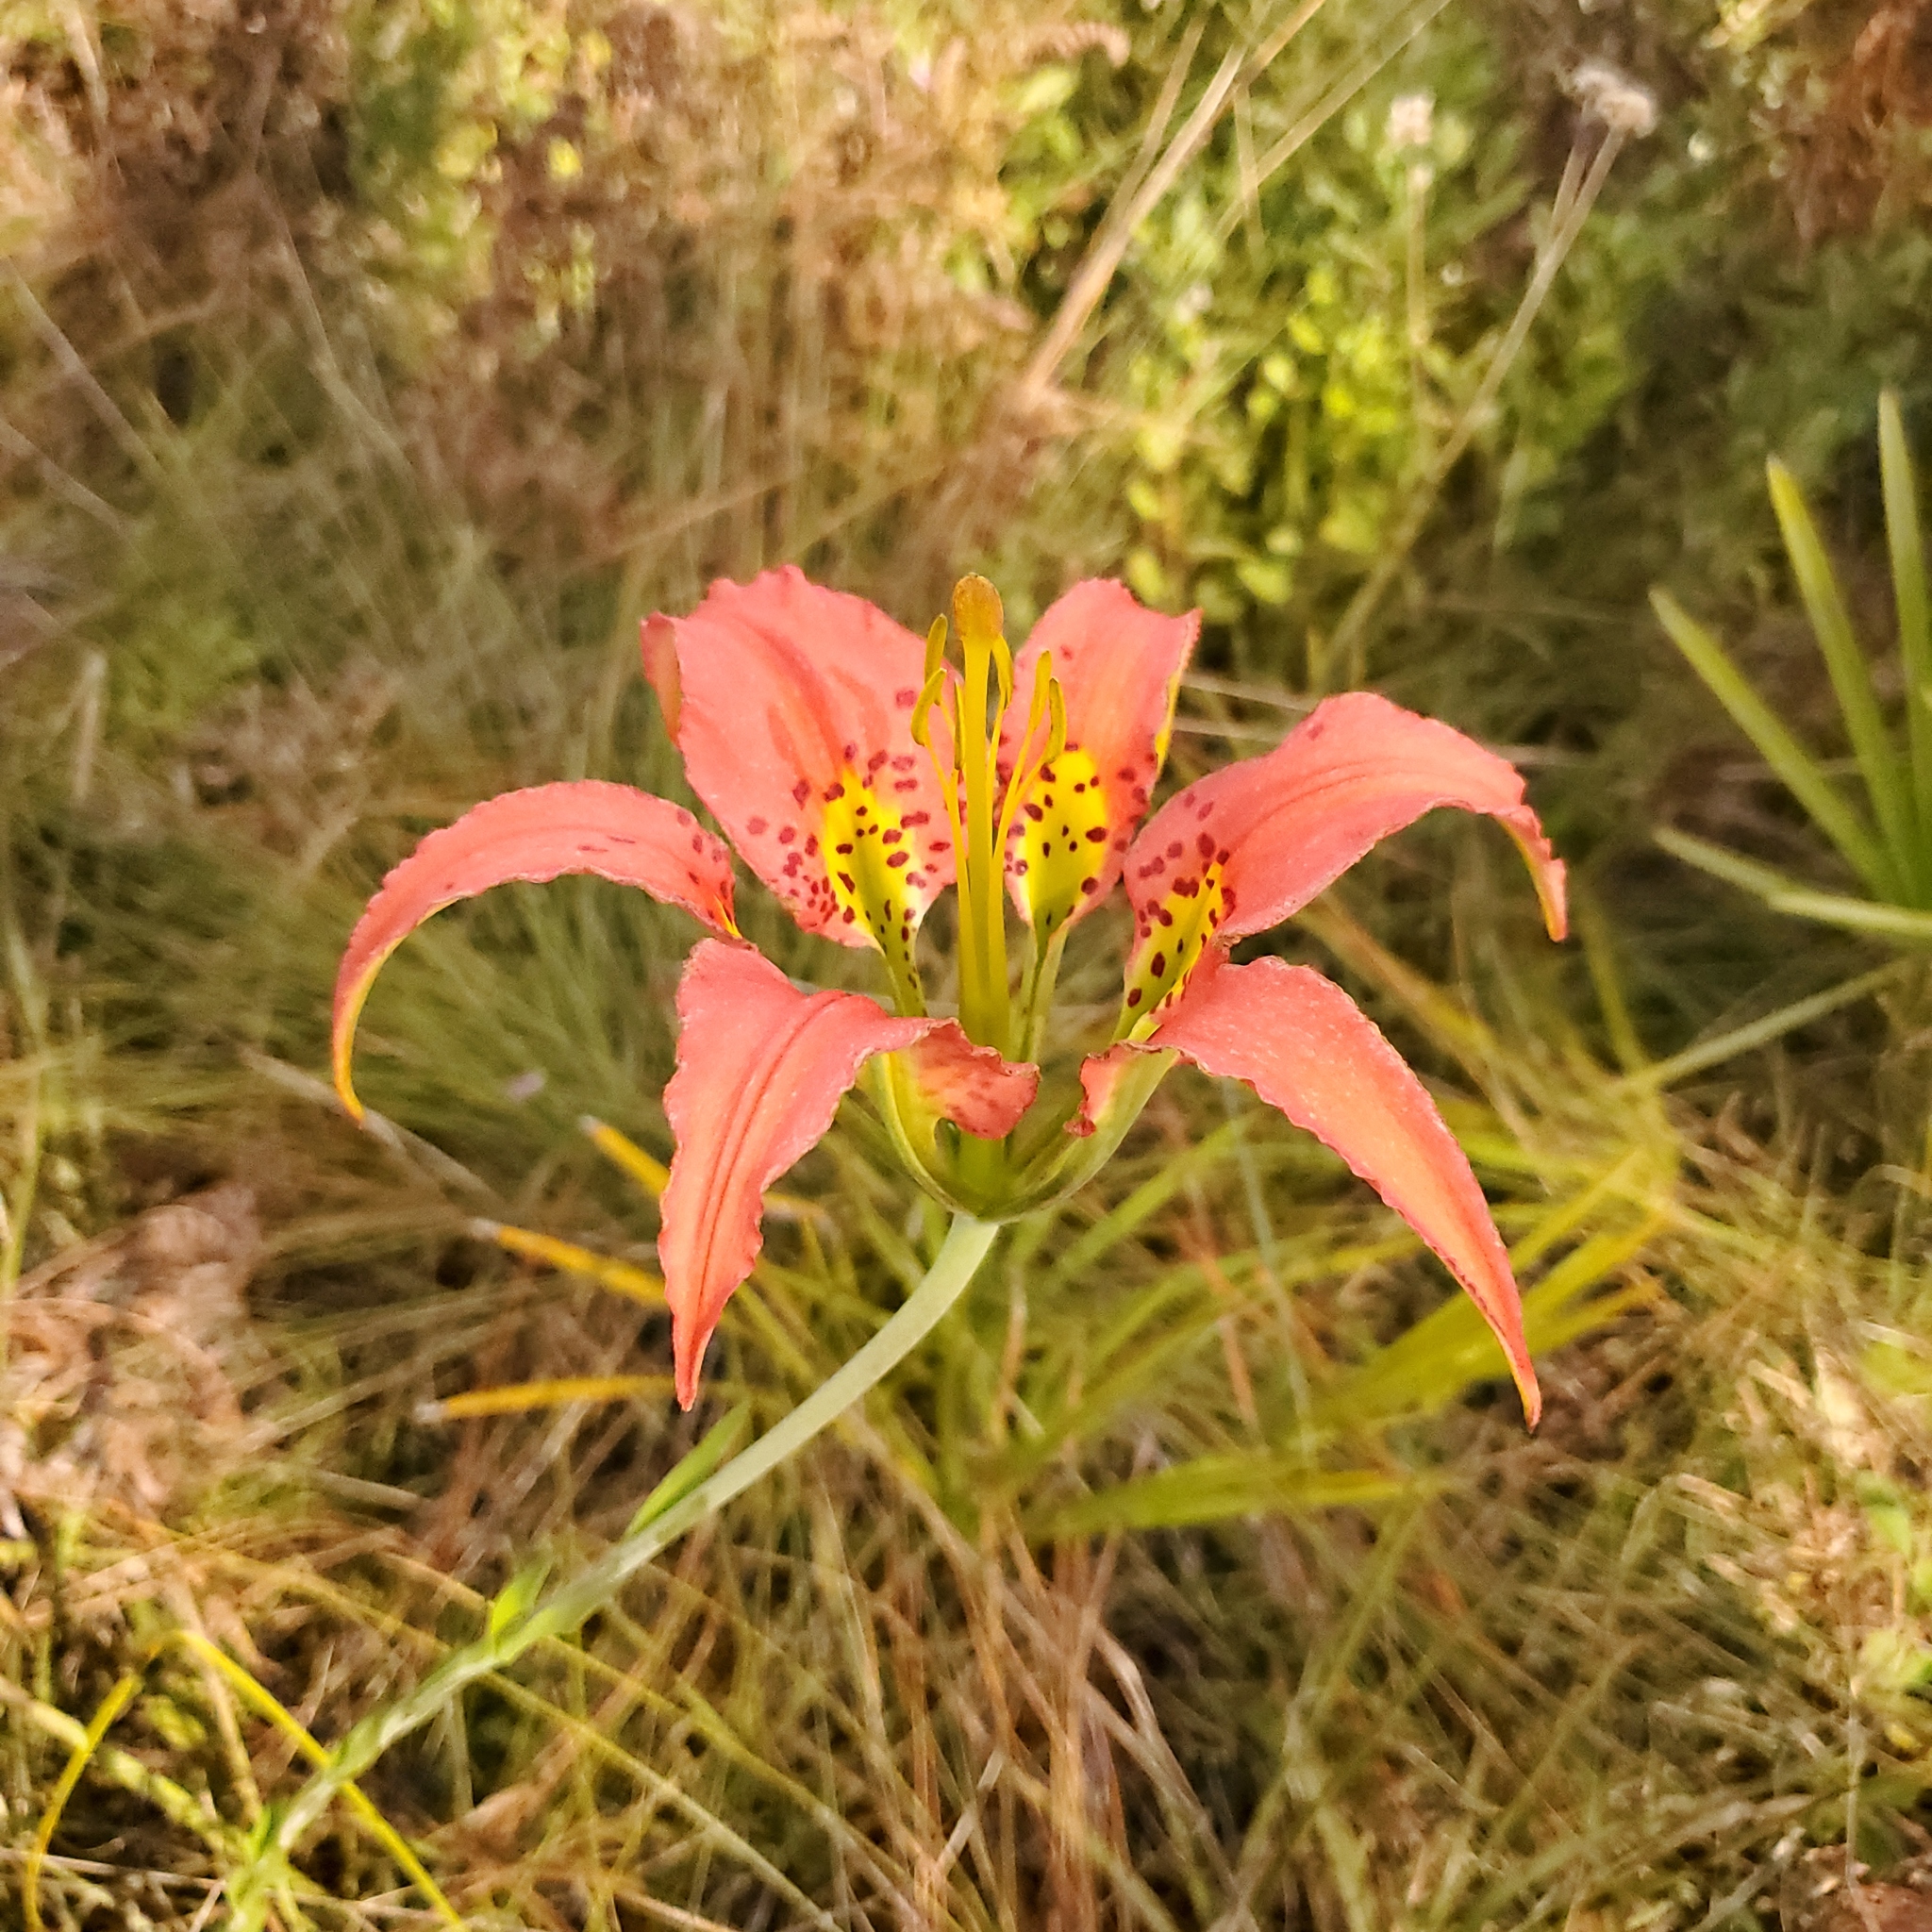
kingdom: Plantae
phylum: Tracheophyta
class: Liliopsida
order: Liliales
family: Liliaceae
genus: Lilium
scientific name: Lilium catesbaei
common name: Catesby's lily
